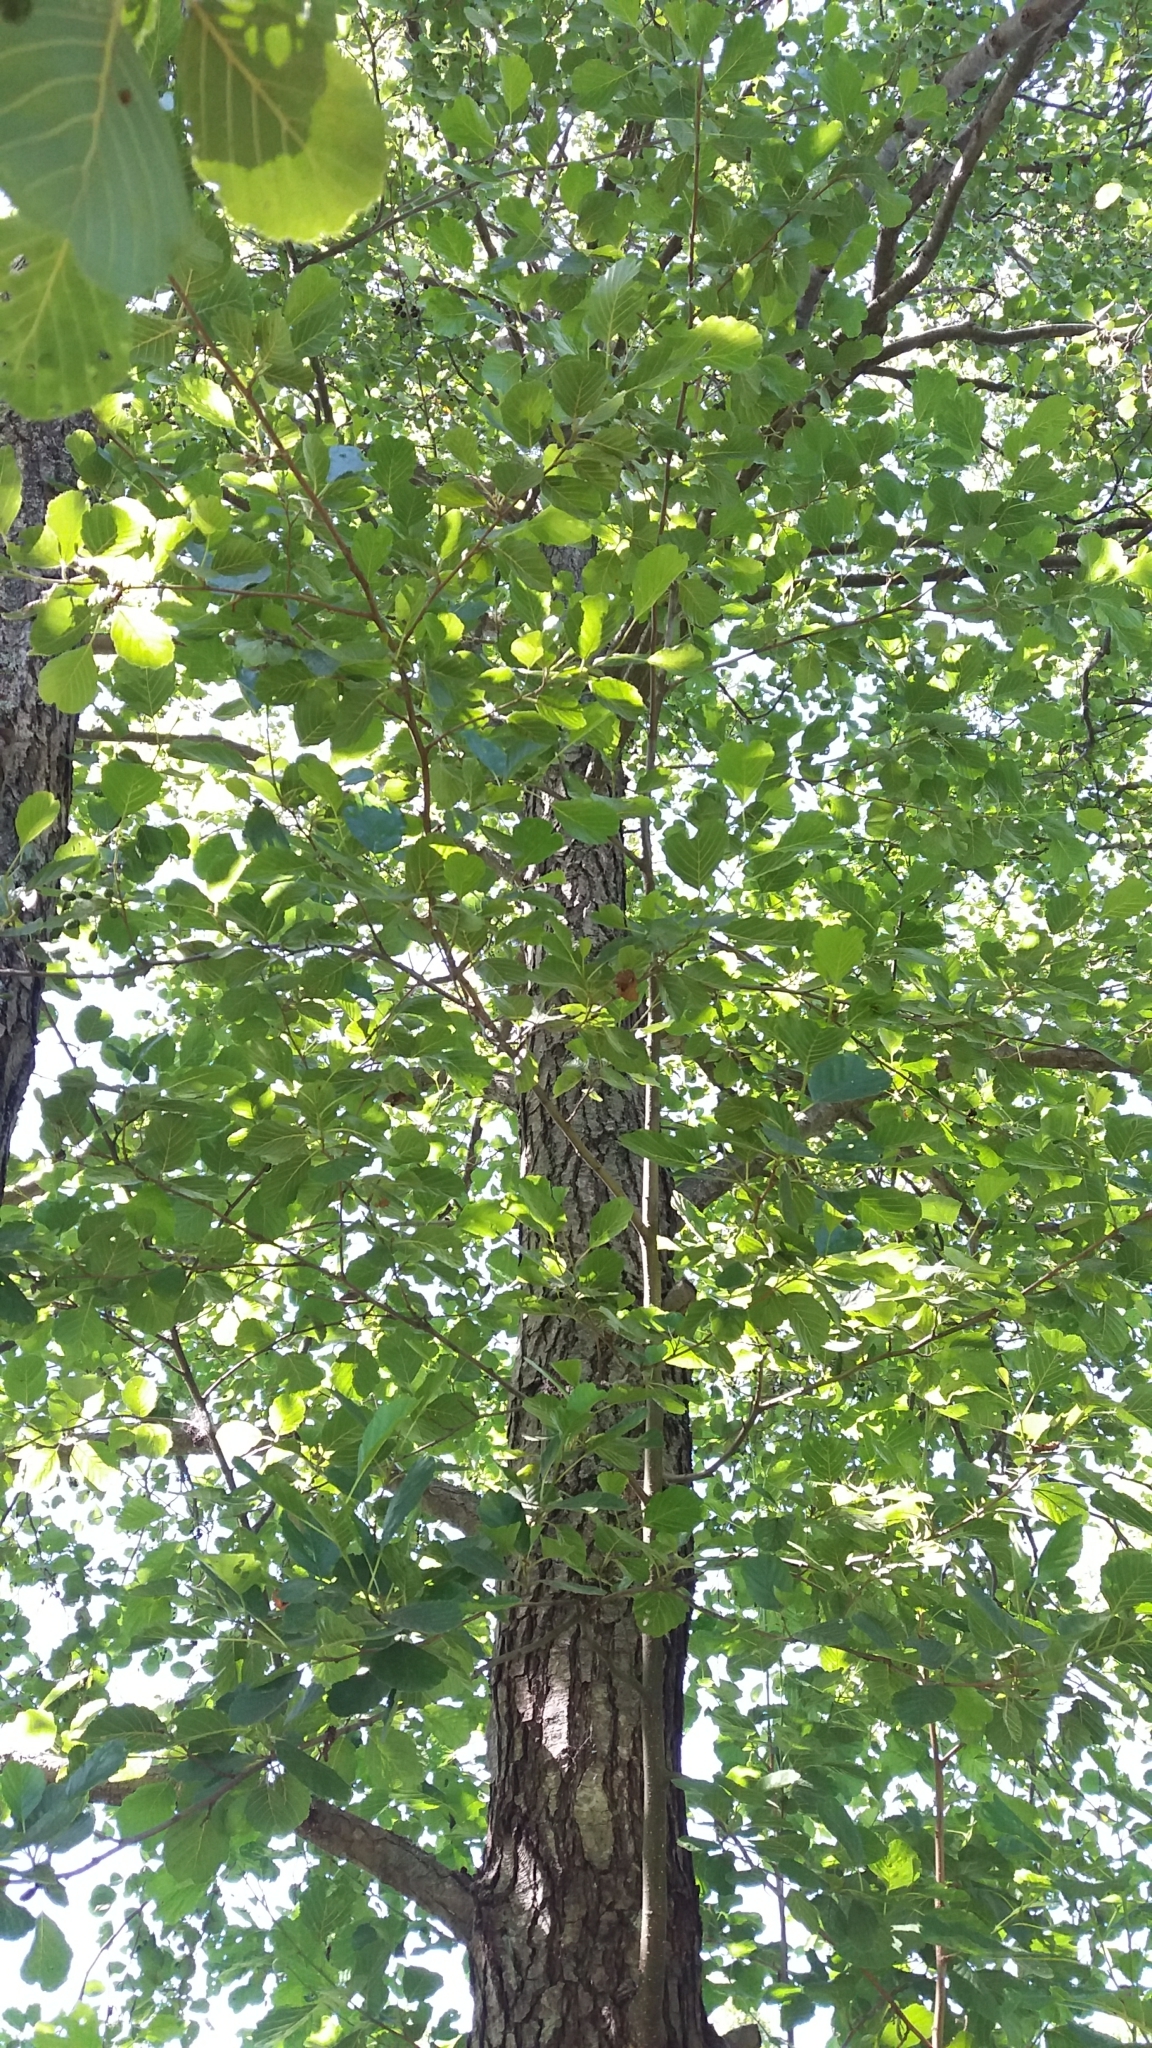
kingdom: Plantae
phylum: Tracheophyta
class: Magnoliopsida
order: Fagales
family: Betulaceae
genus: Alnus
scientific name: Alnus glutinosa
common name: Black alder
